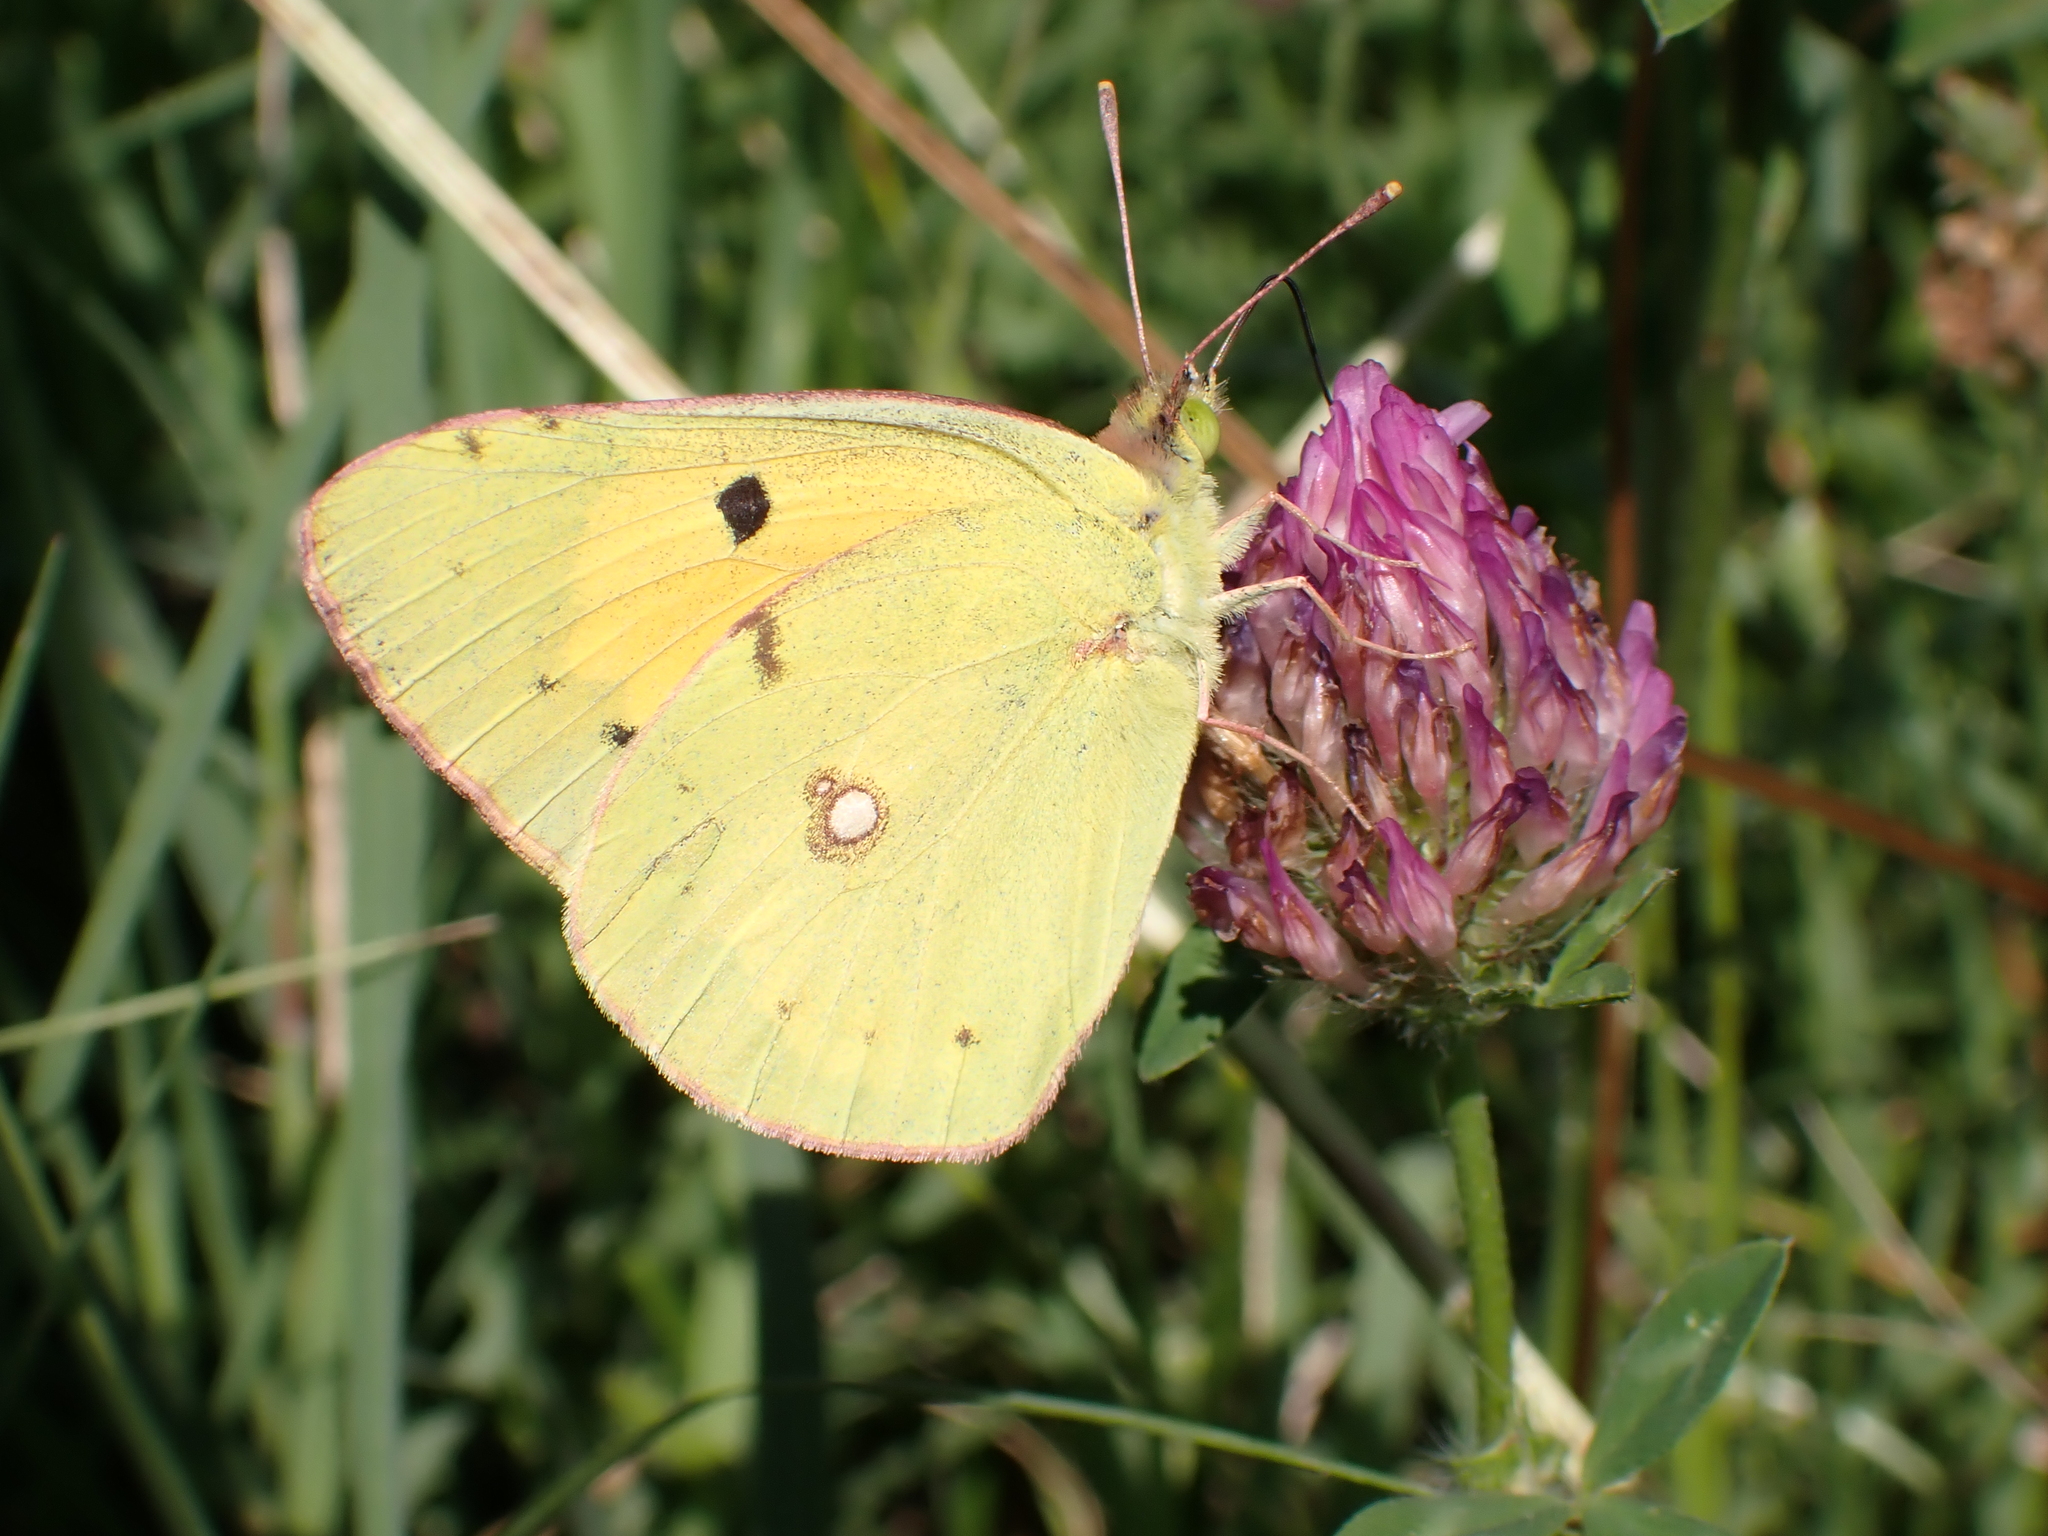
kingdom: Animalia
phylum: Arthropoda
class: Insecta
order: Lepidoptera
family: Pieridae
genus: Colias
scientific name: Colias croceus
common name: Clouded yellow
